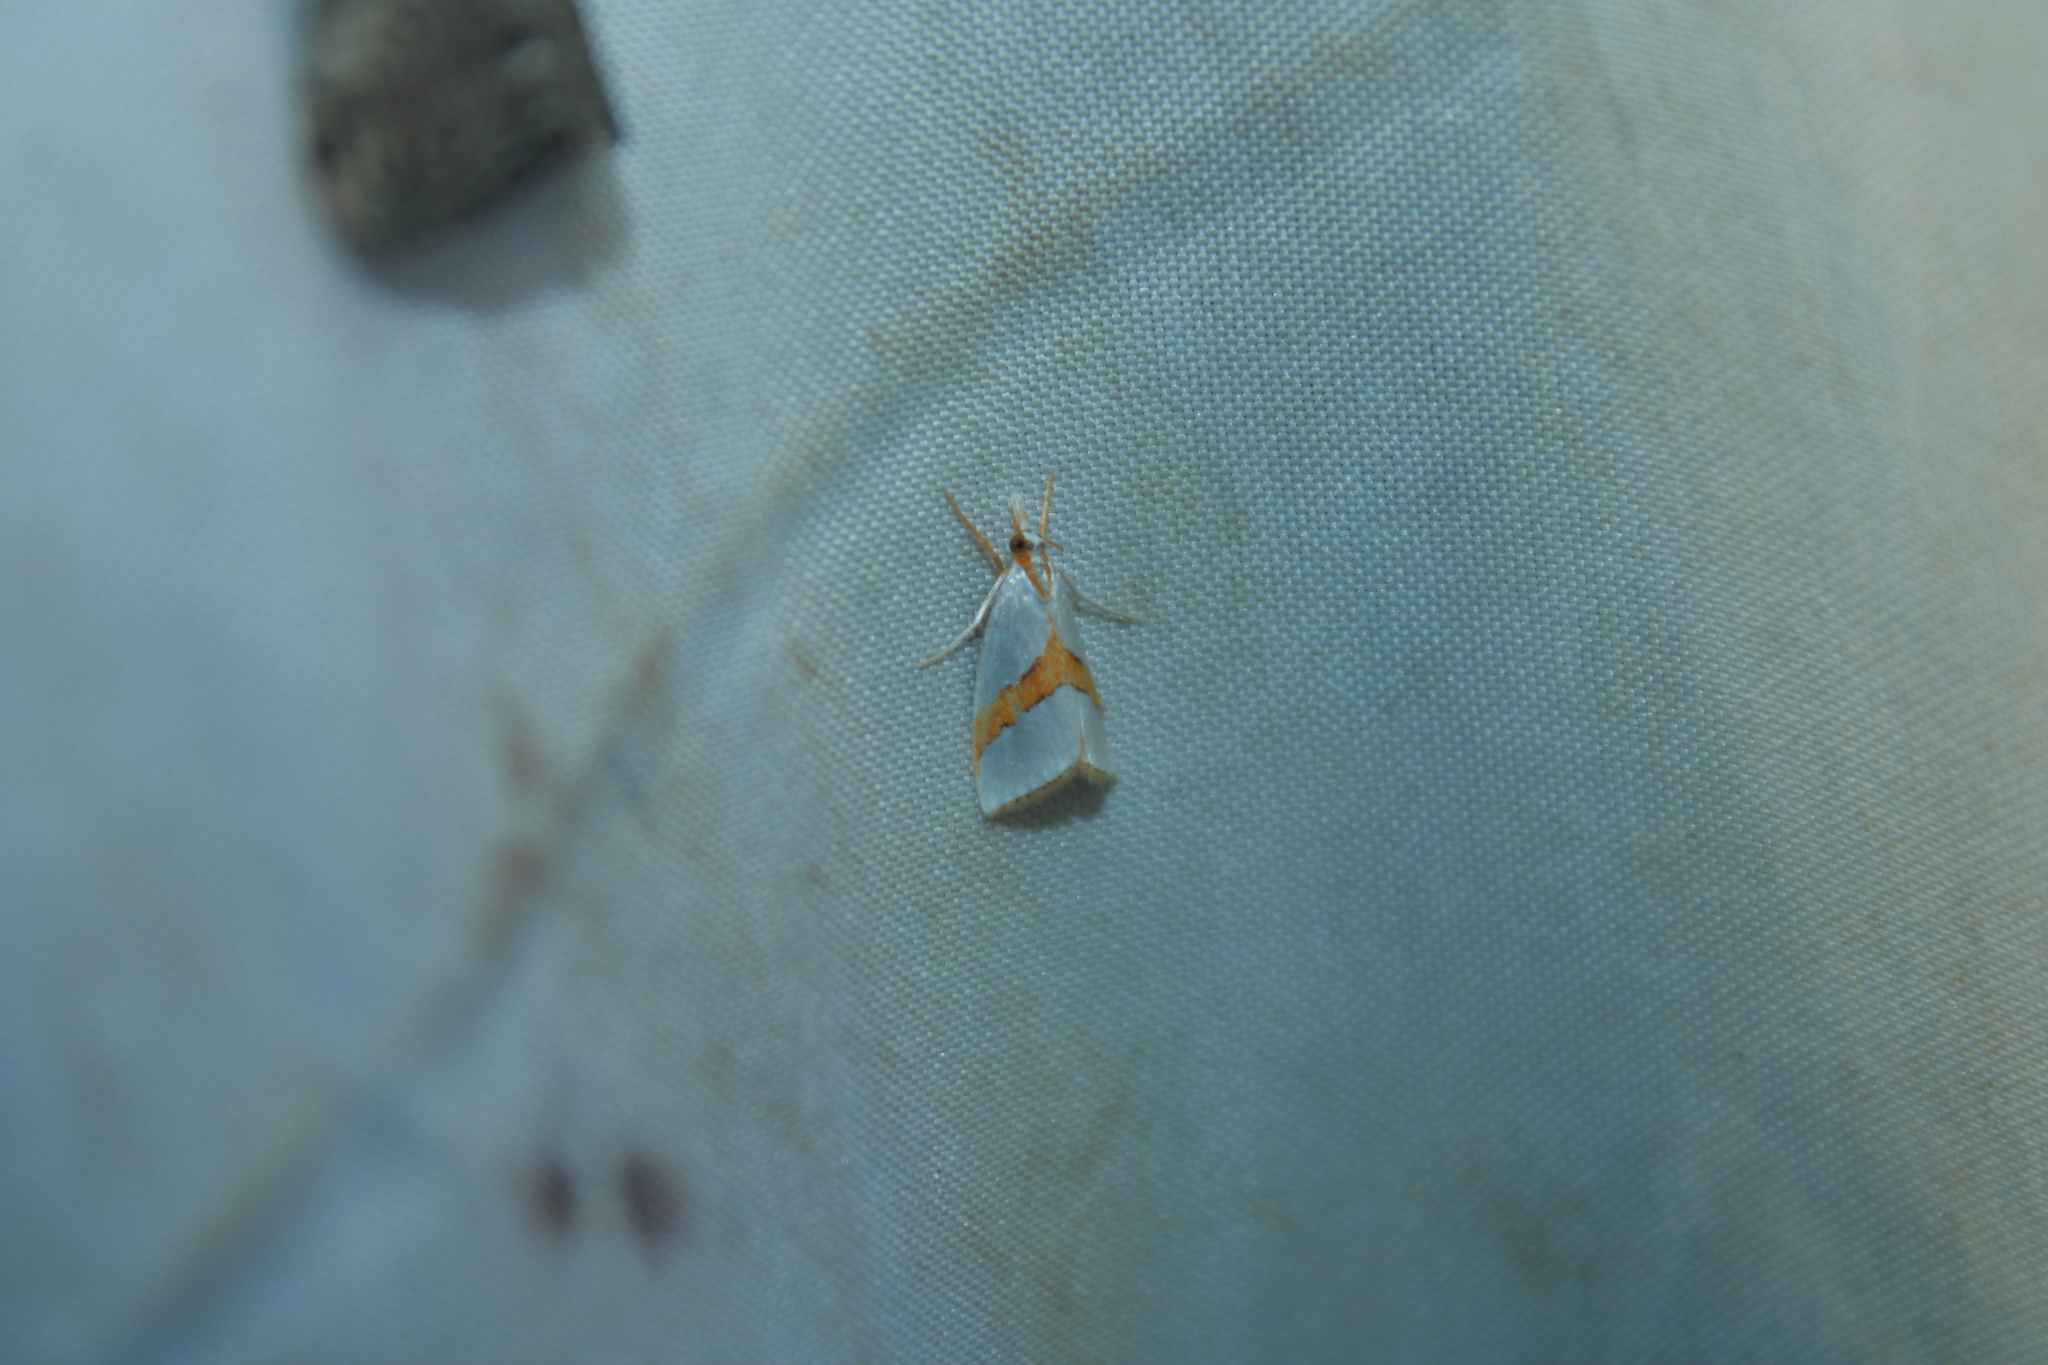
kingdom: Animalia
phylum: Arthropoda
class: Insecta
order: Lepidoptera
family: Crambidae
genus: Vaxi
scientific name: Vaxi critica
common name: Straight-lined vaxi moth
